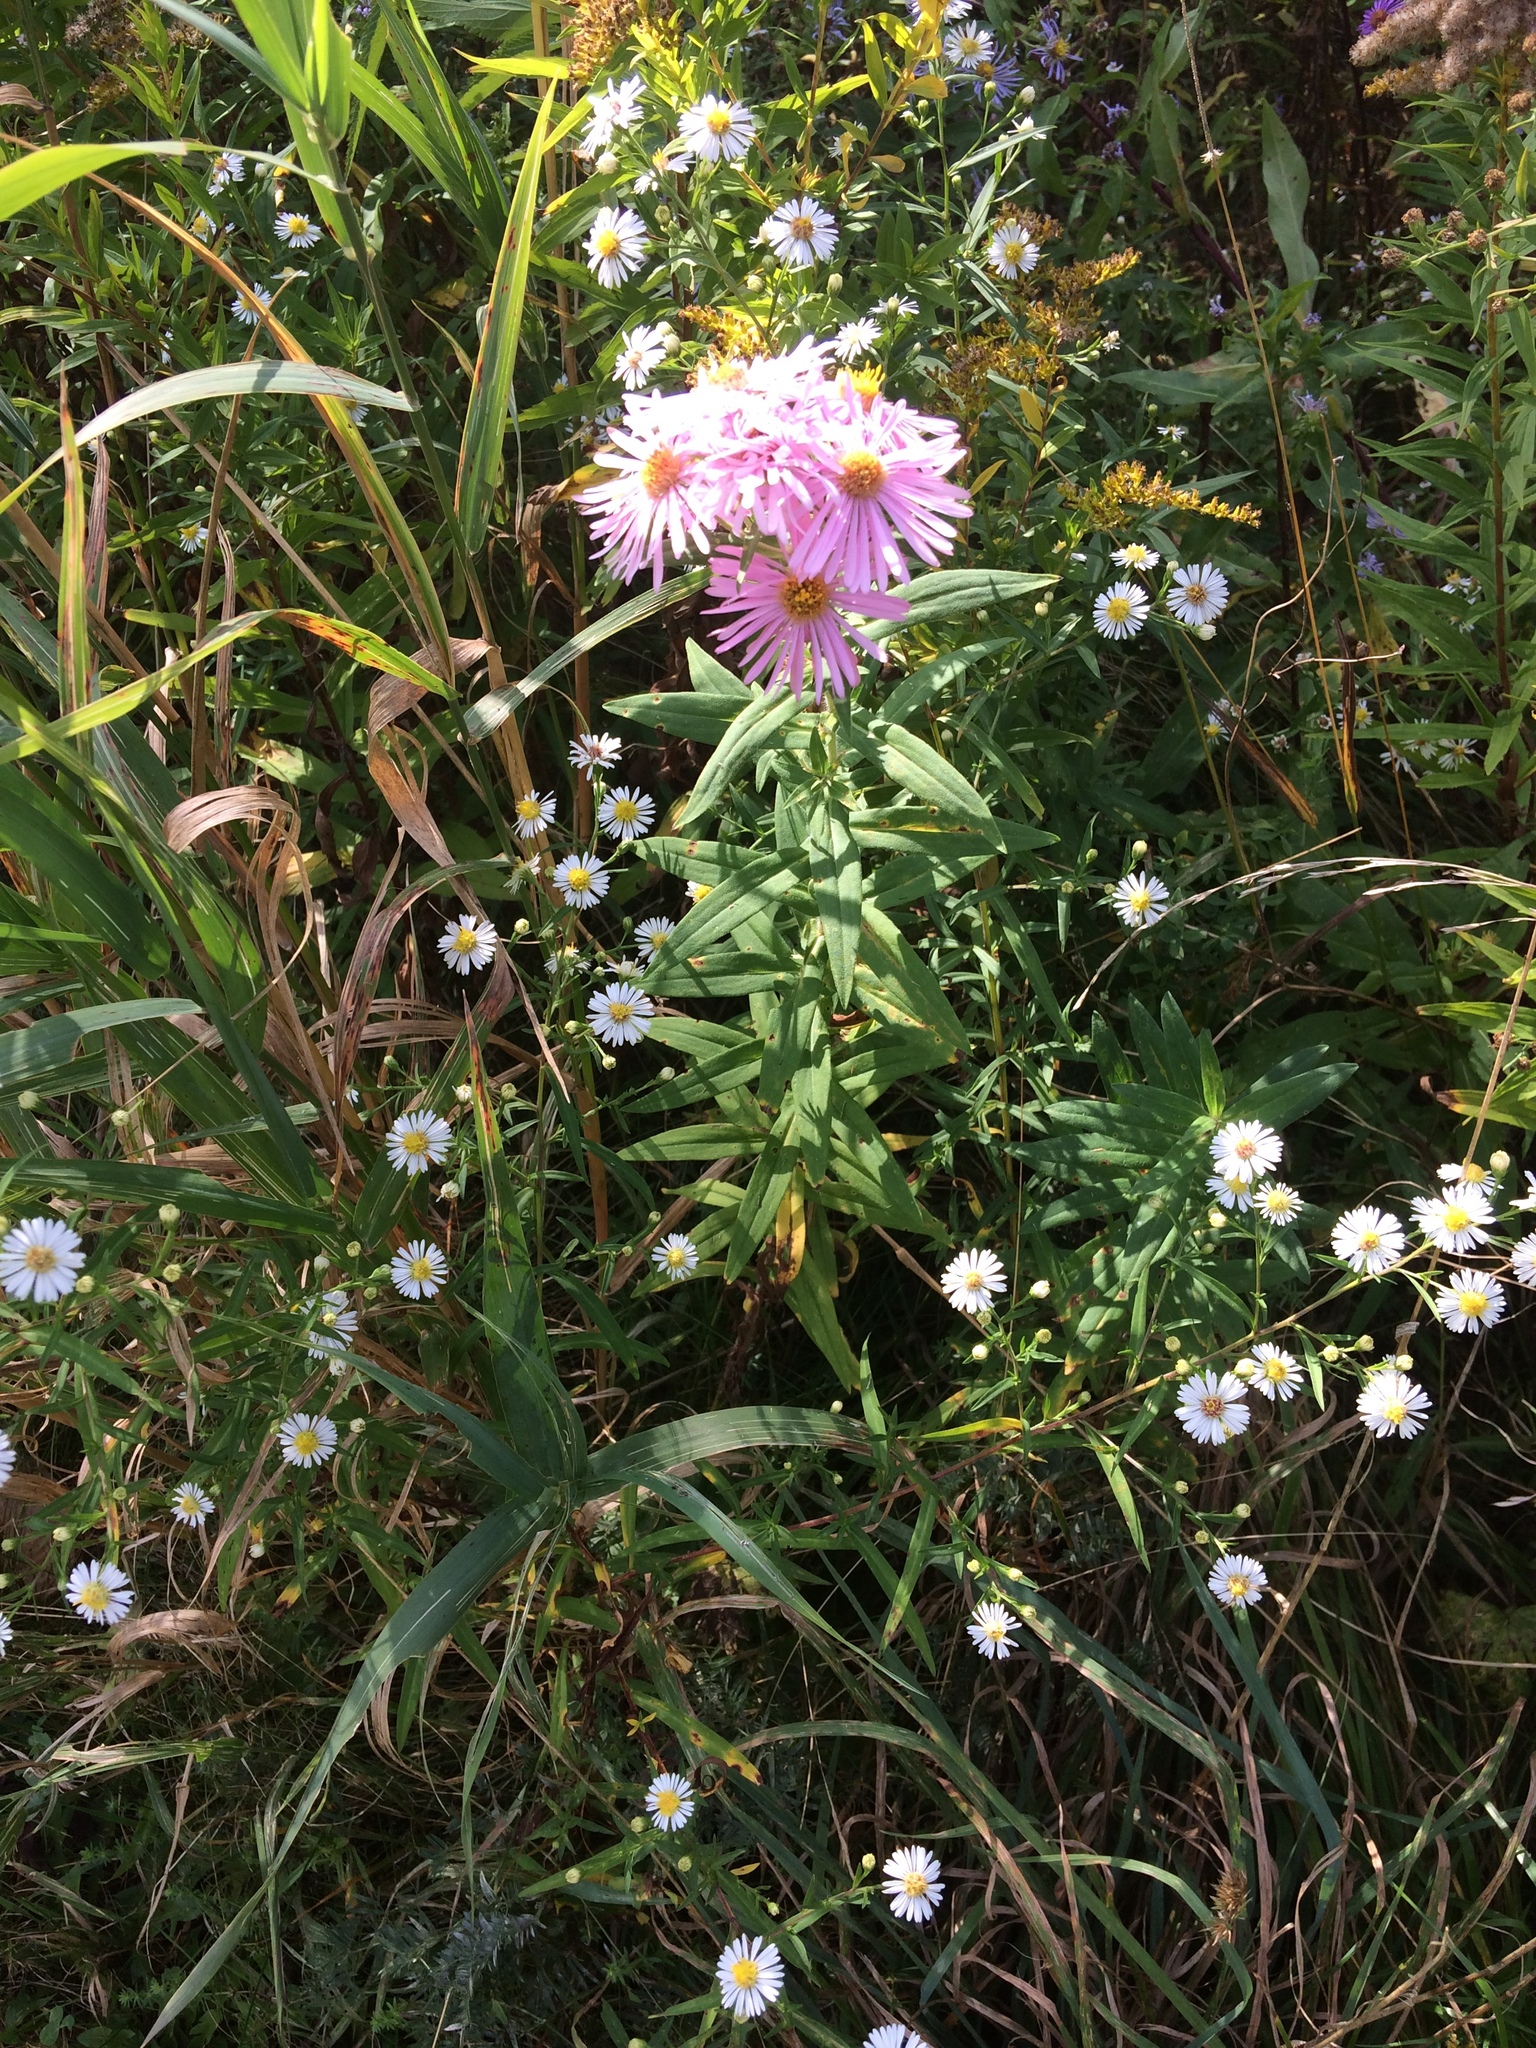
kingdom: Plantae
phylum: Tracheophyta
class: Magnoliopsida
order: Asterales
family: Asteraceae
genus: Symphyotrichum
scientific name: Symphyotrichum novae-angliae
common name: Michaelmas daisy
